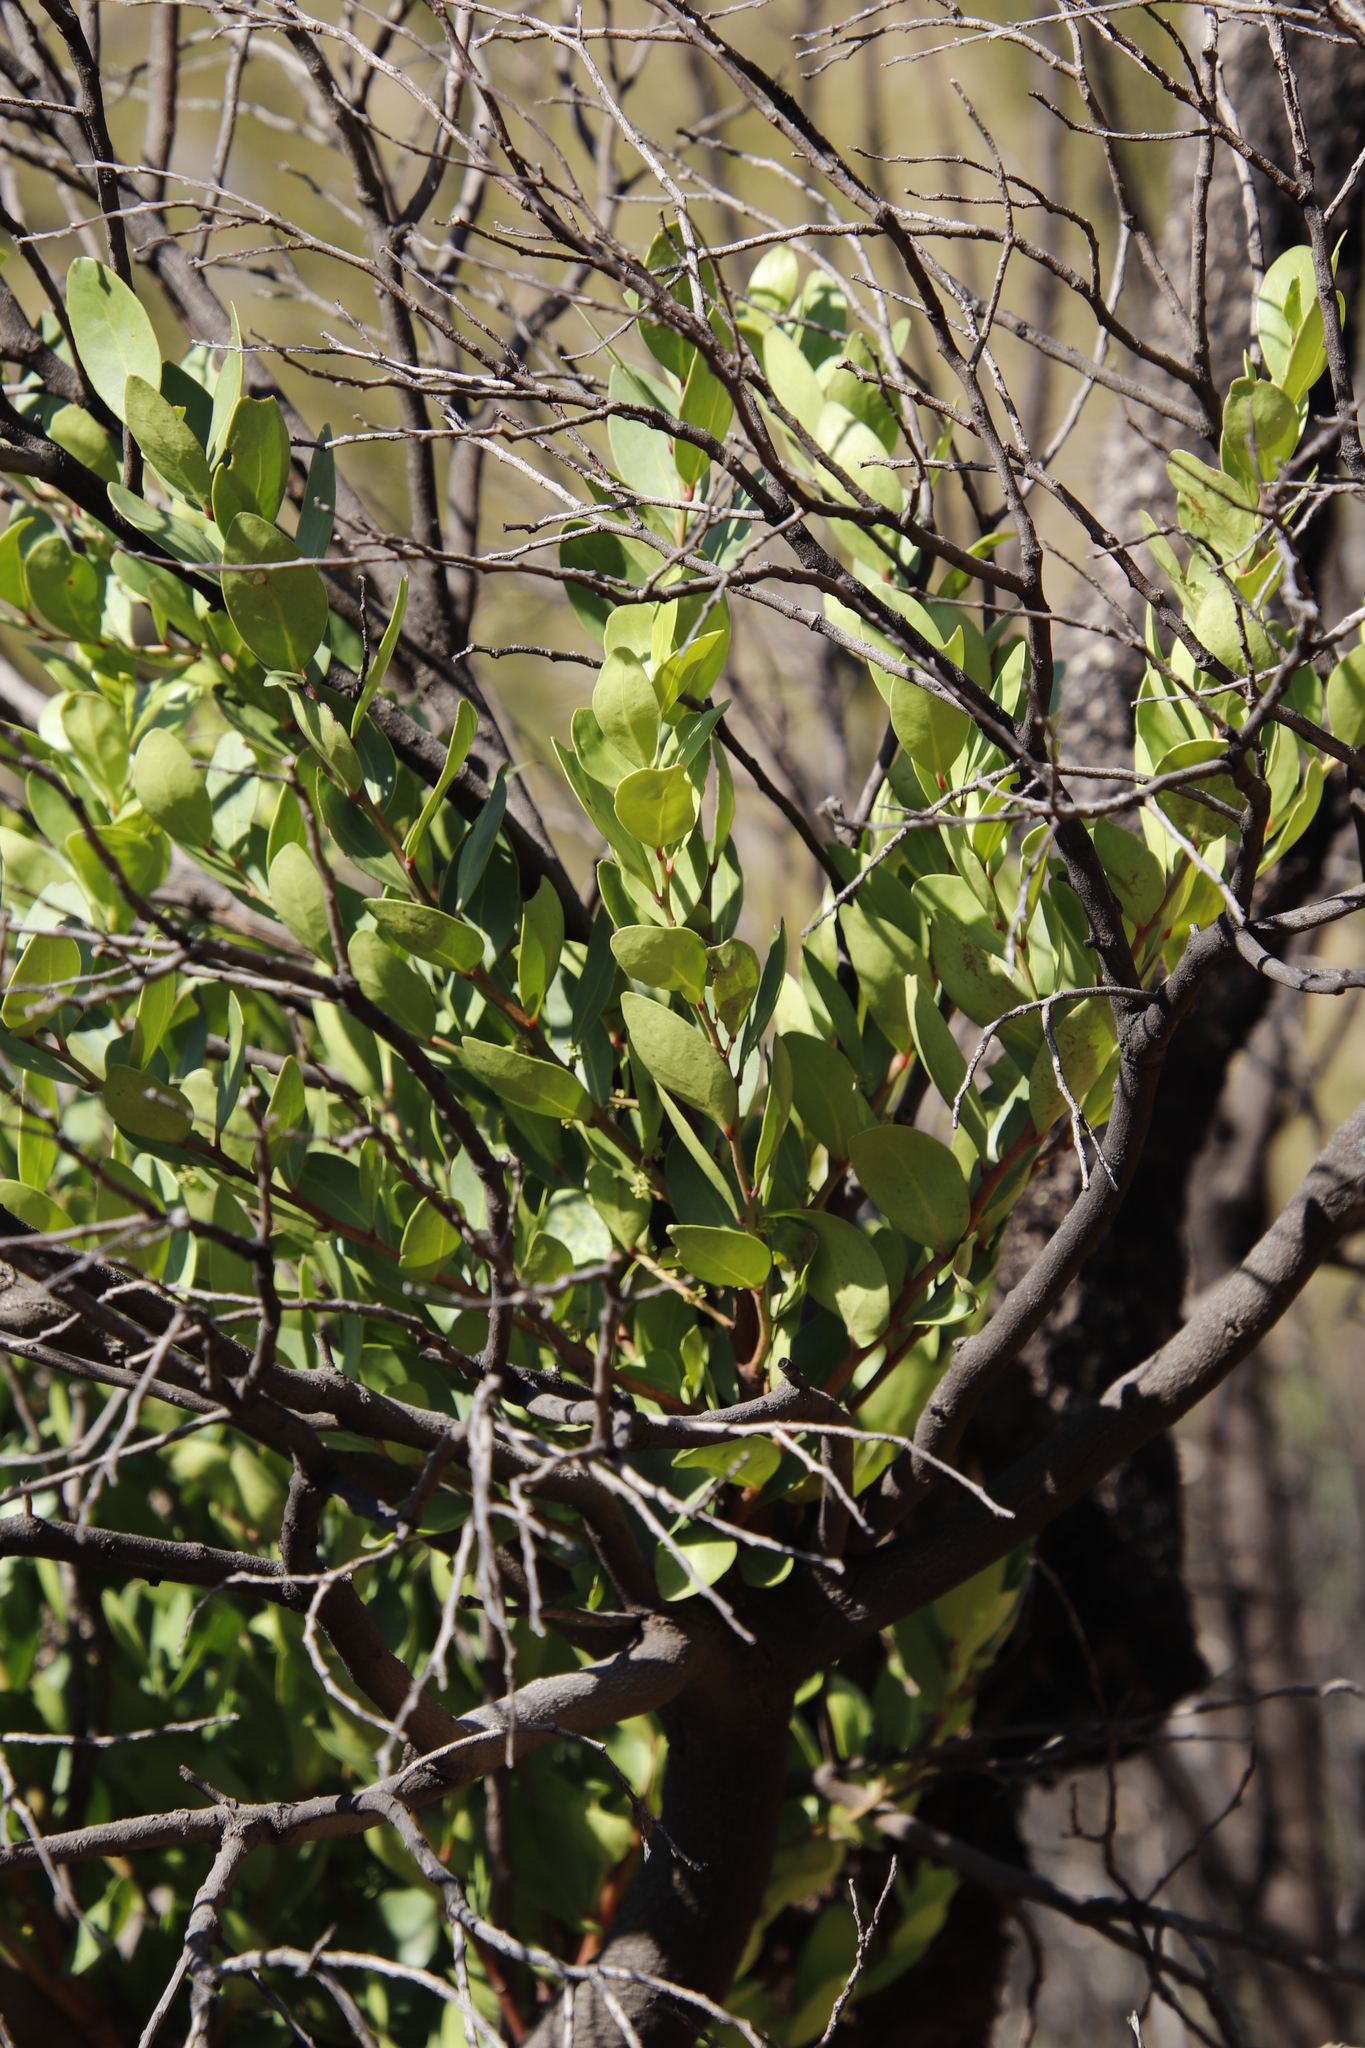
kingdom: Plantae
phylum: Tracheophyta
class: Magnoliopsida
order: Celastrales
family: Celastraceae
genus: Gymnosporia
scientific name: Gymnosporia laurina
